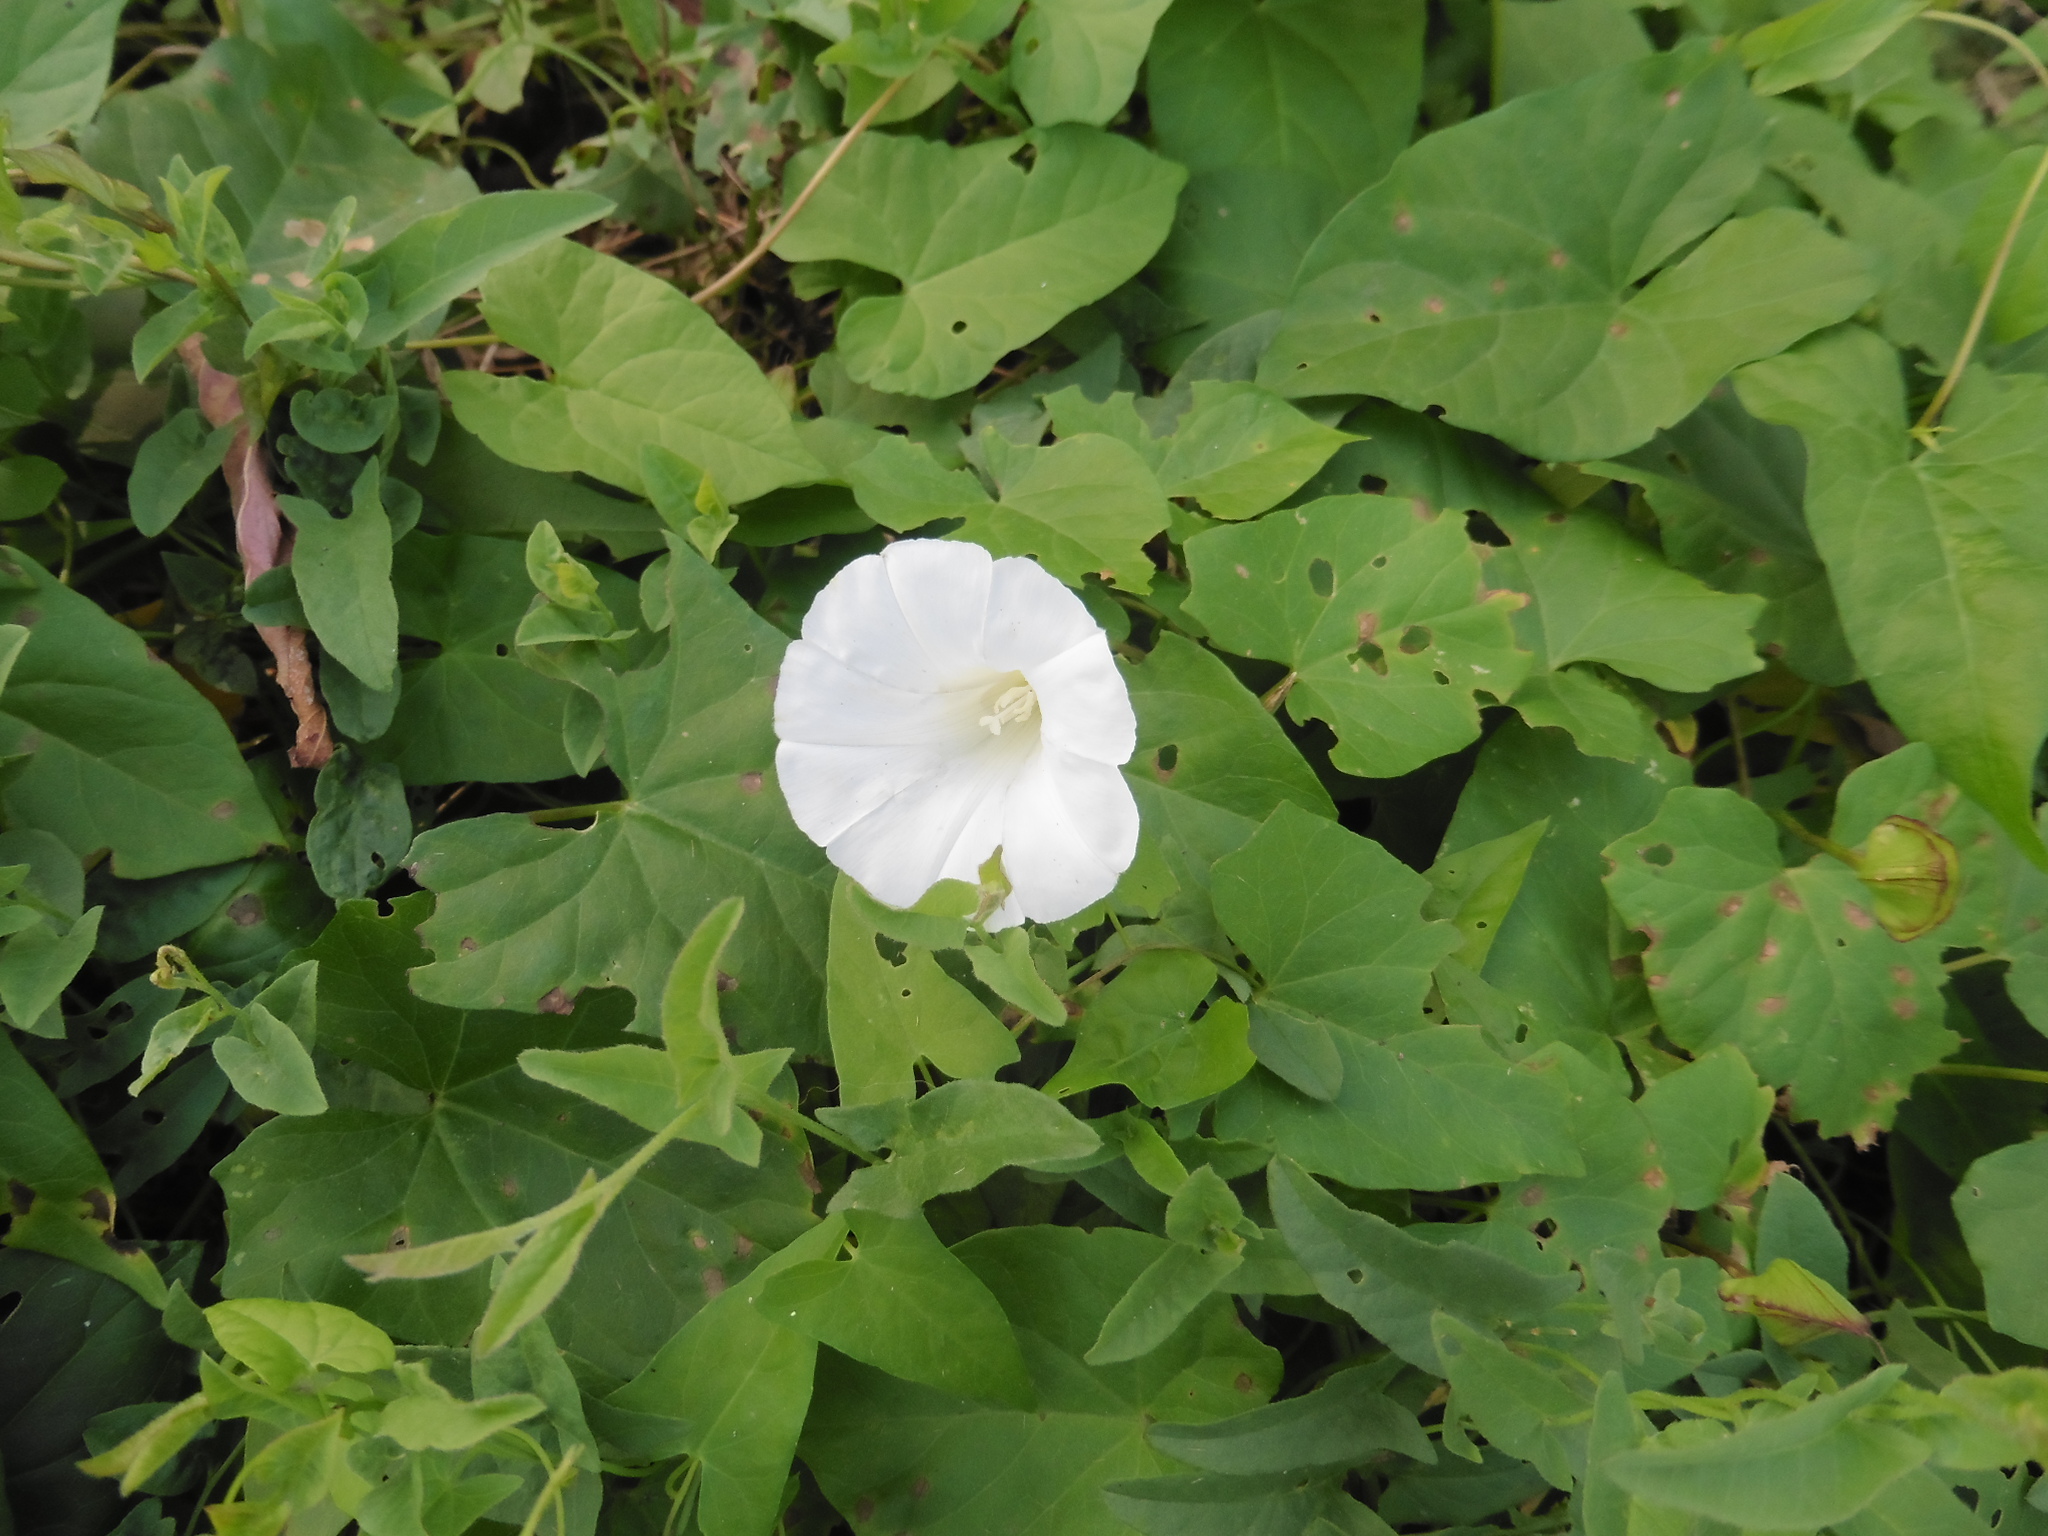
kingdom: Plantae
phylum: Tracheophyta
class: Magnoliopsida
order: Solanales
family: Convolvulaceae
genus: Calystegia
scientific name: Calystegia sepium
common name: Hedge bindweed
